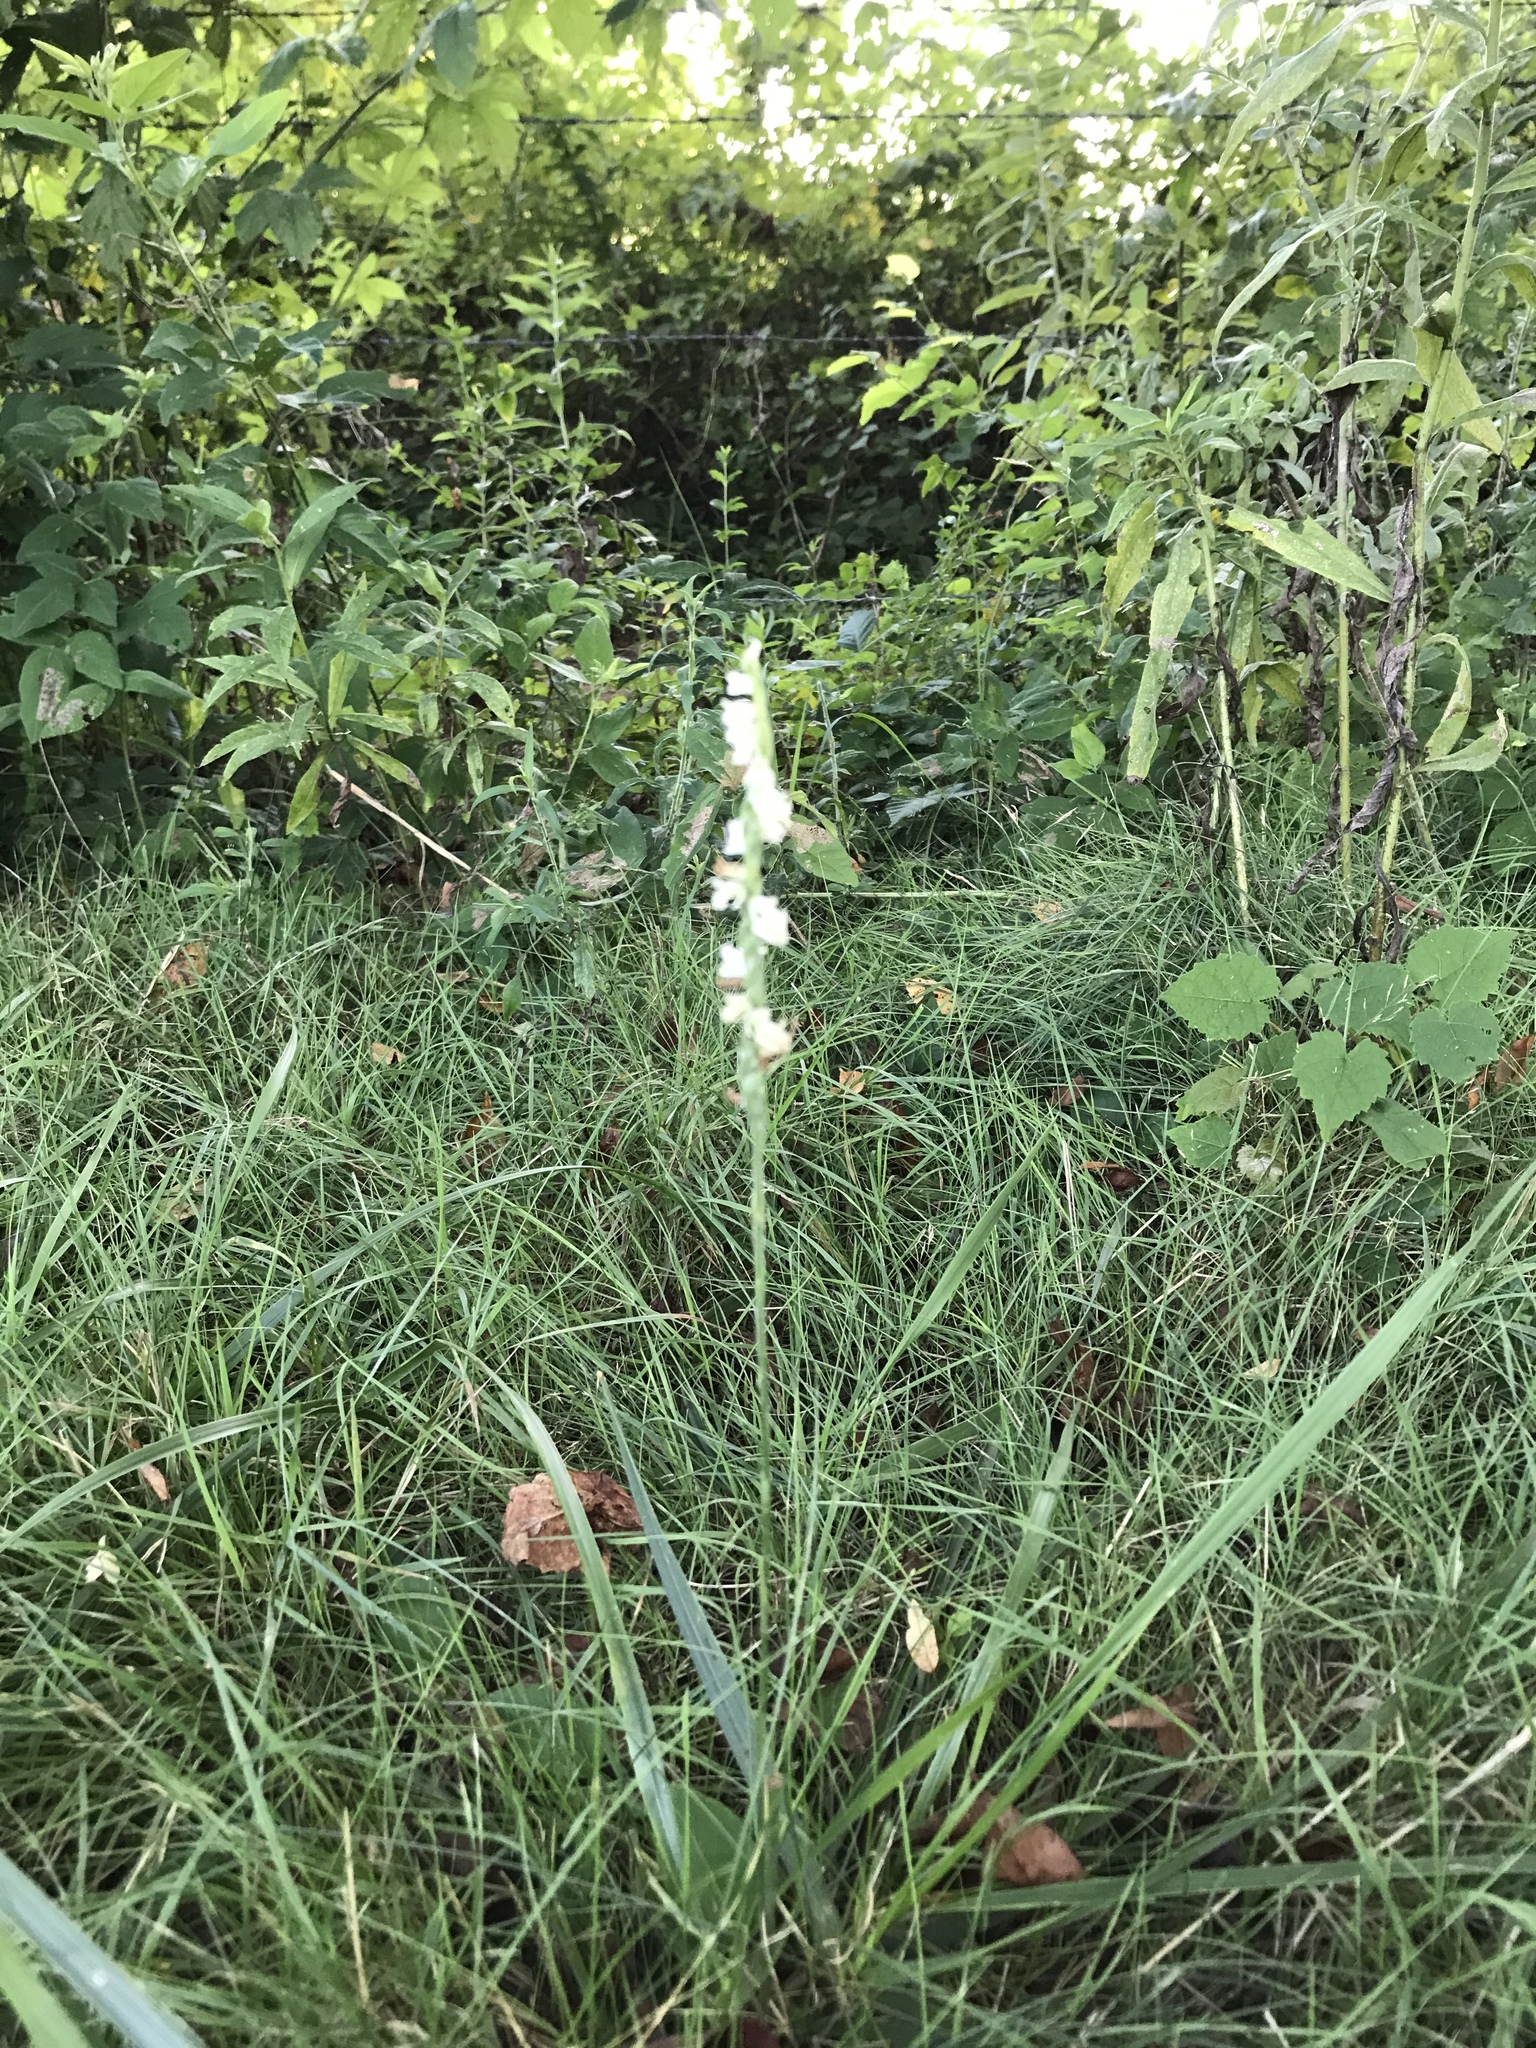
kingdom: Plantae
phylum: Tracheophyta
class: Liliopsida
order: Asparagales
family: Orchidaceae
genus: Spiranthes
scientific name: Spiranthes vernalis
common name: Spring ladies'-tresses
